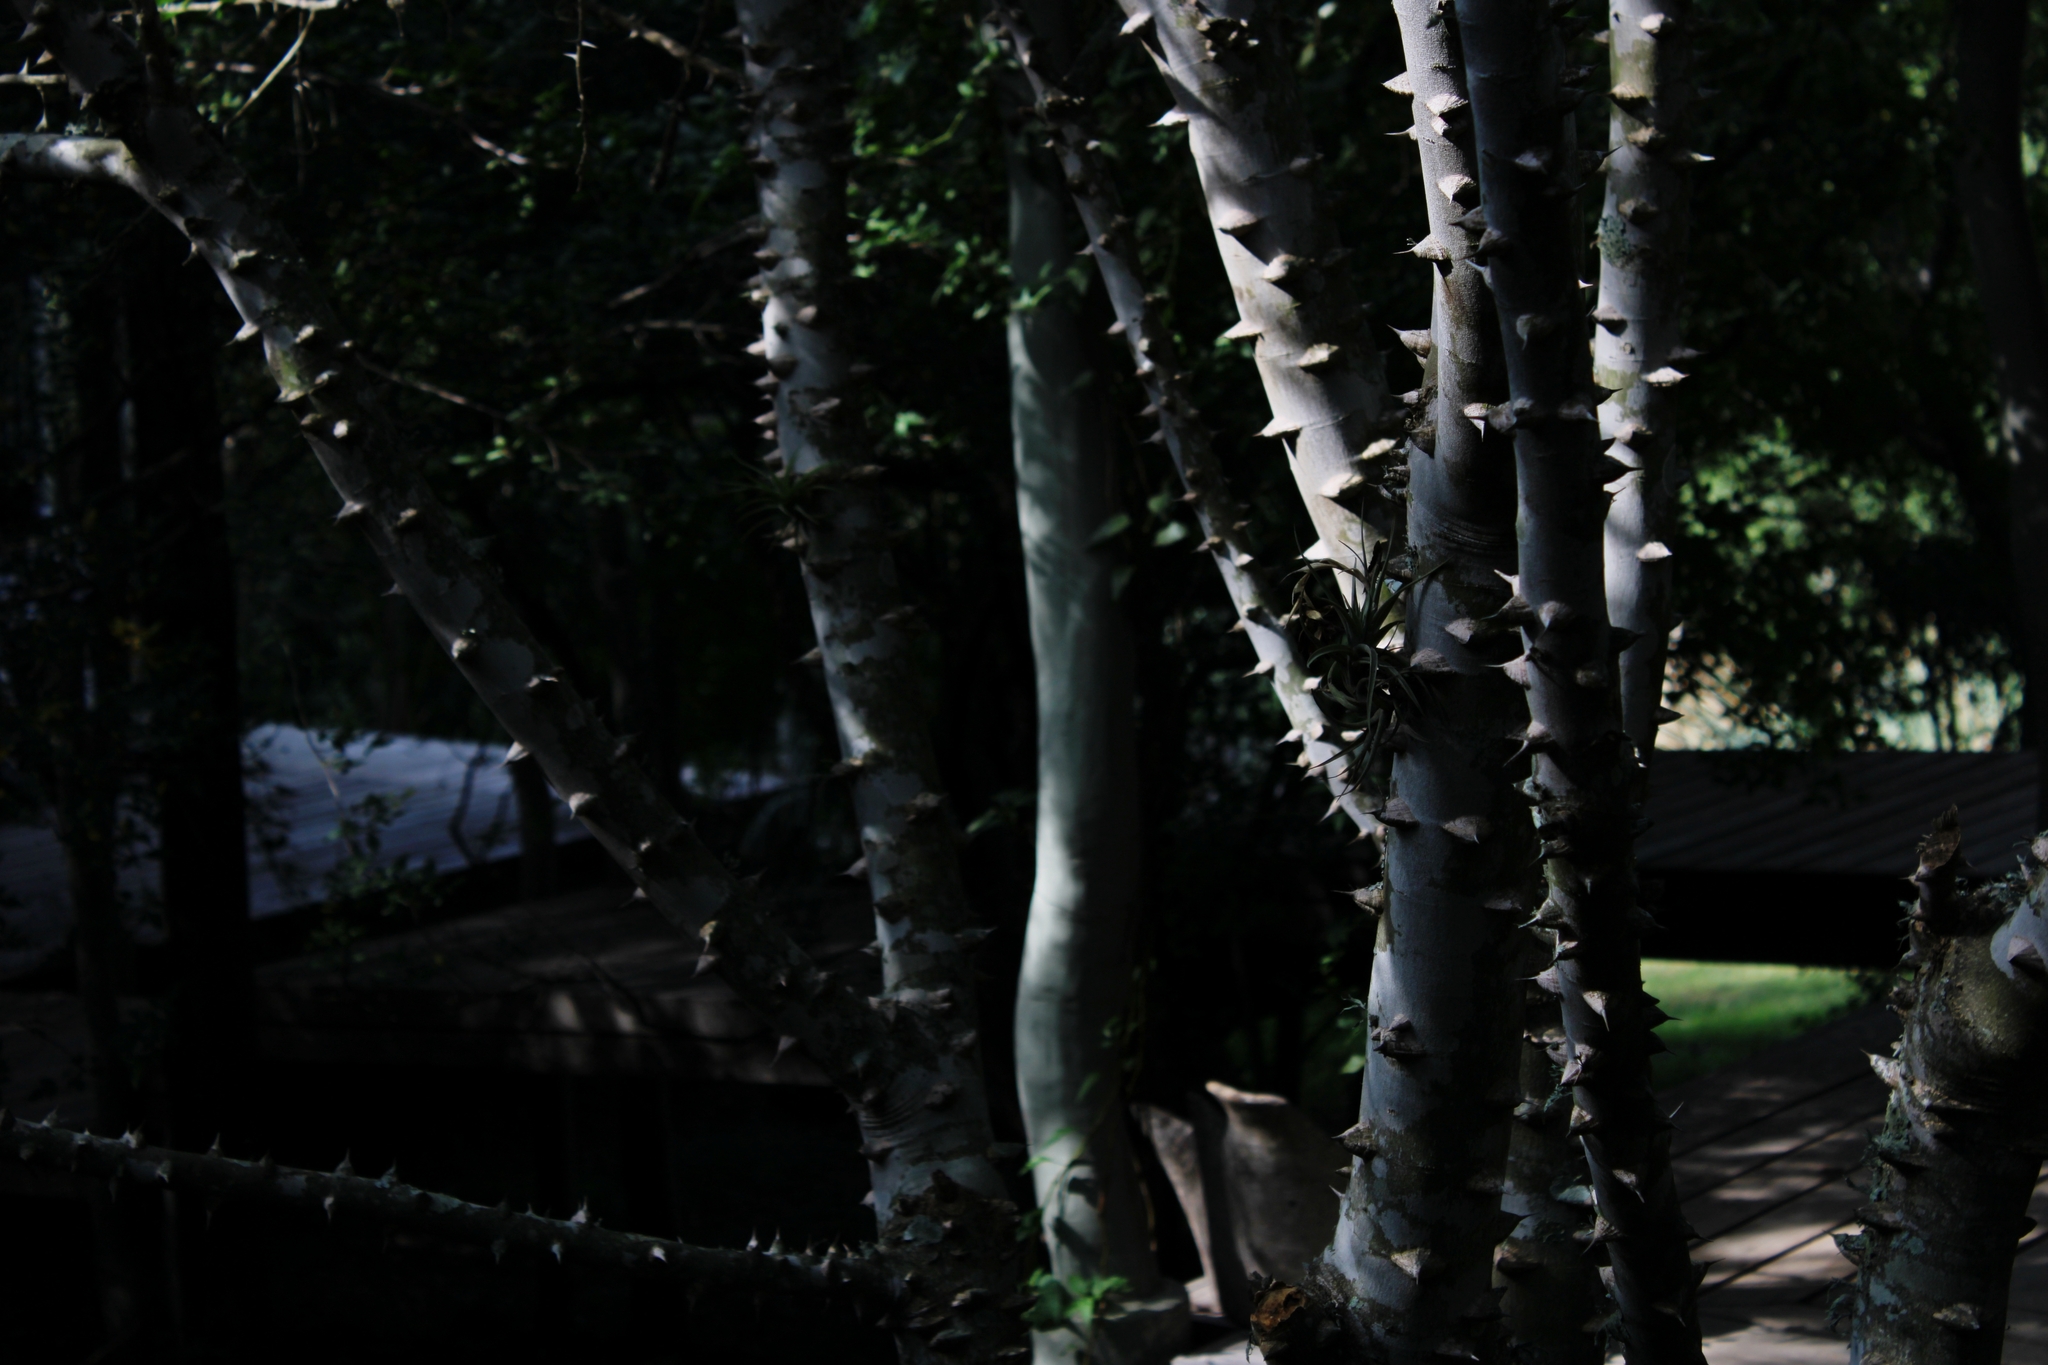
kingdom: Plantae
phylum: Tracheophyta
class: Magnoliopsida
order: Sapindales
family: Rutaceae
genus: Zanthoxylum
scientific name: Zanthoxylum rhoifolium
